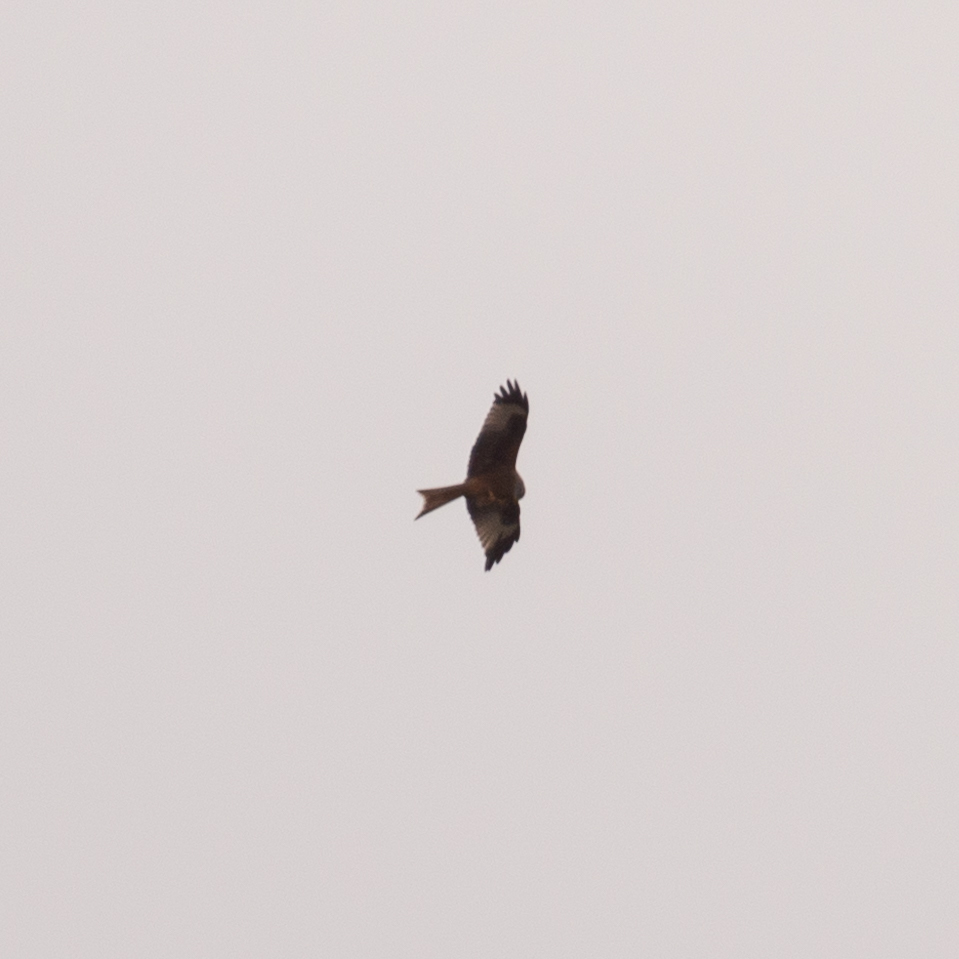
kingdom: Animalia
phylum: Chordata
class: Aves
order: Accipitriformes
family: Accipitridae
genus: Milvus
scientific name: Milvus milvus
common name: Red kite
